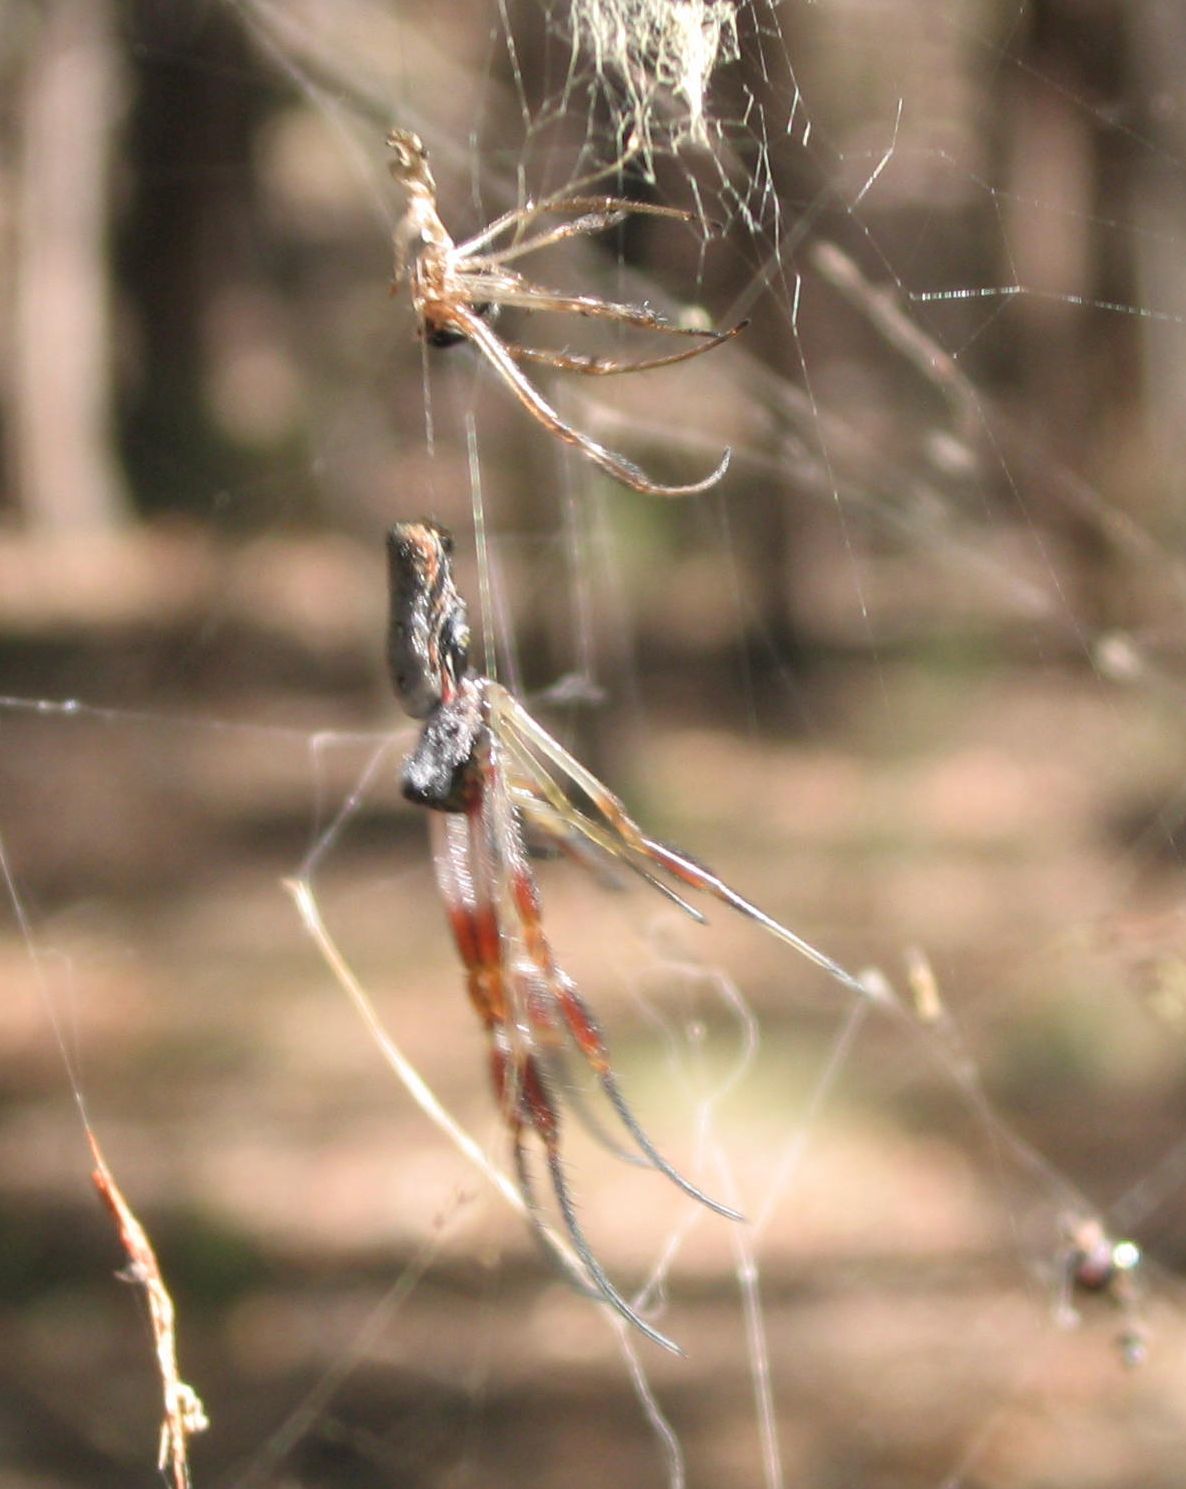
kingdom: Animalia
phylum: Arthropoda
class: Arachnida
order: Araneae
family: Araneidae
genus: Trichonephila
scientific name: Trichonephila edulis
